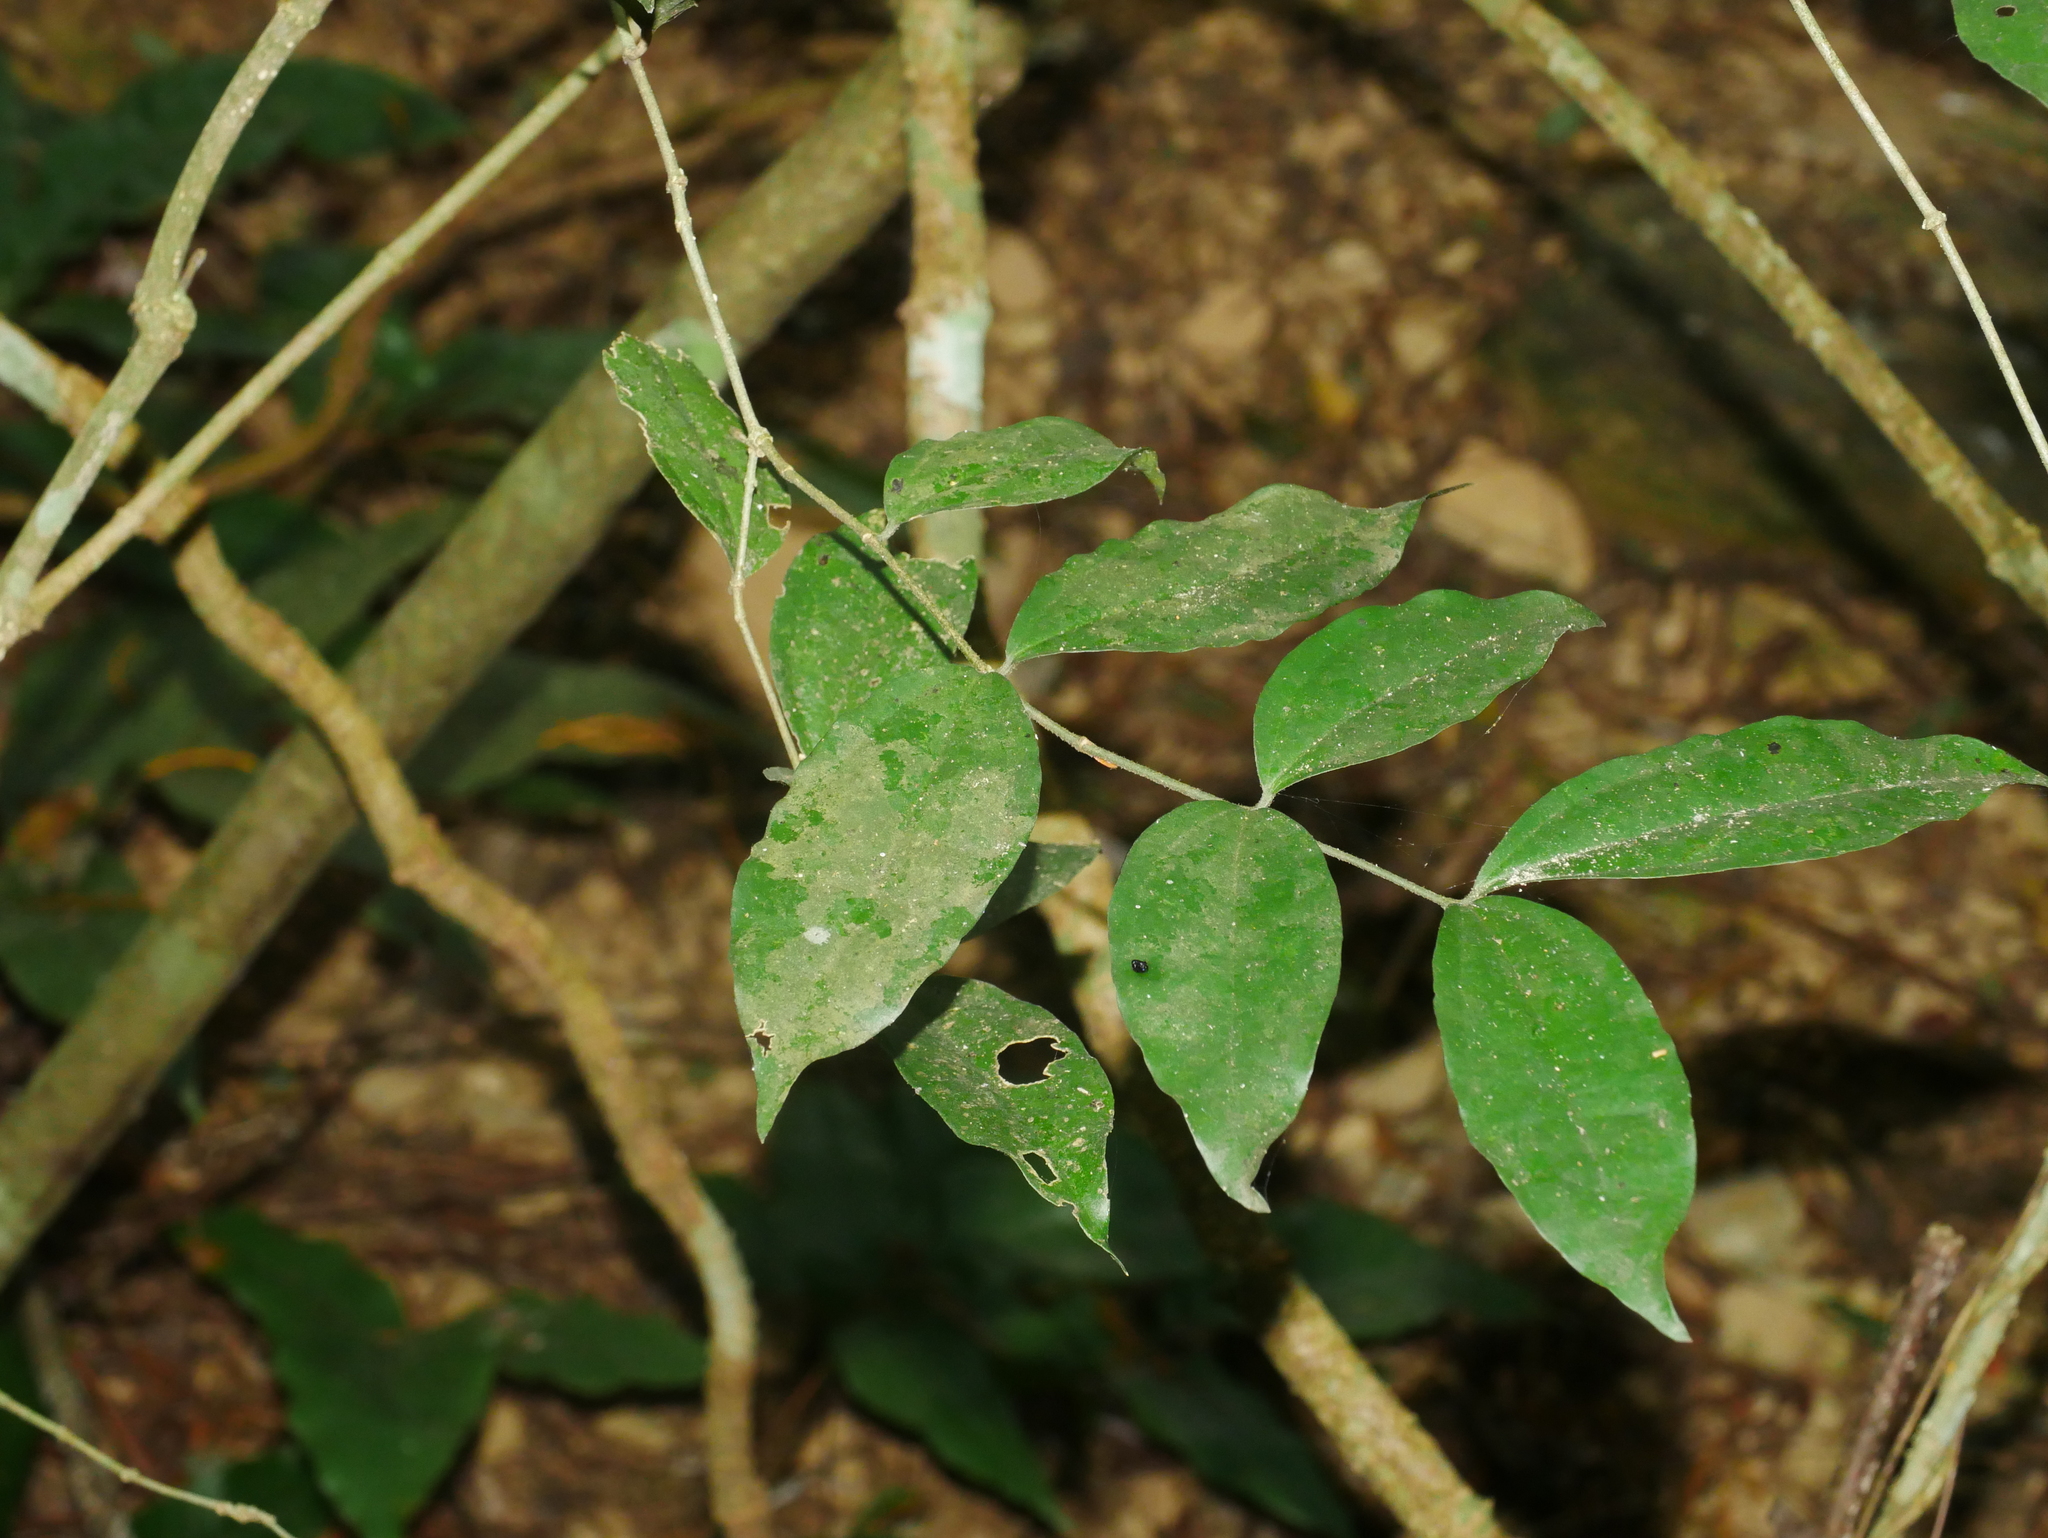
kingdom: Plantae
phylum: Tracheophyta
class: Magnoliopsida
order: Gentianales
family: Loganiaceae
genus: Strychnos
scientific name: Strychnos cathayensis
